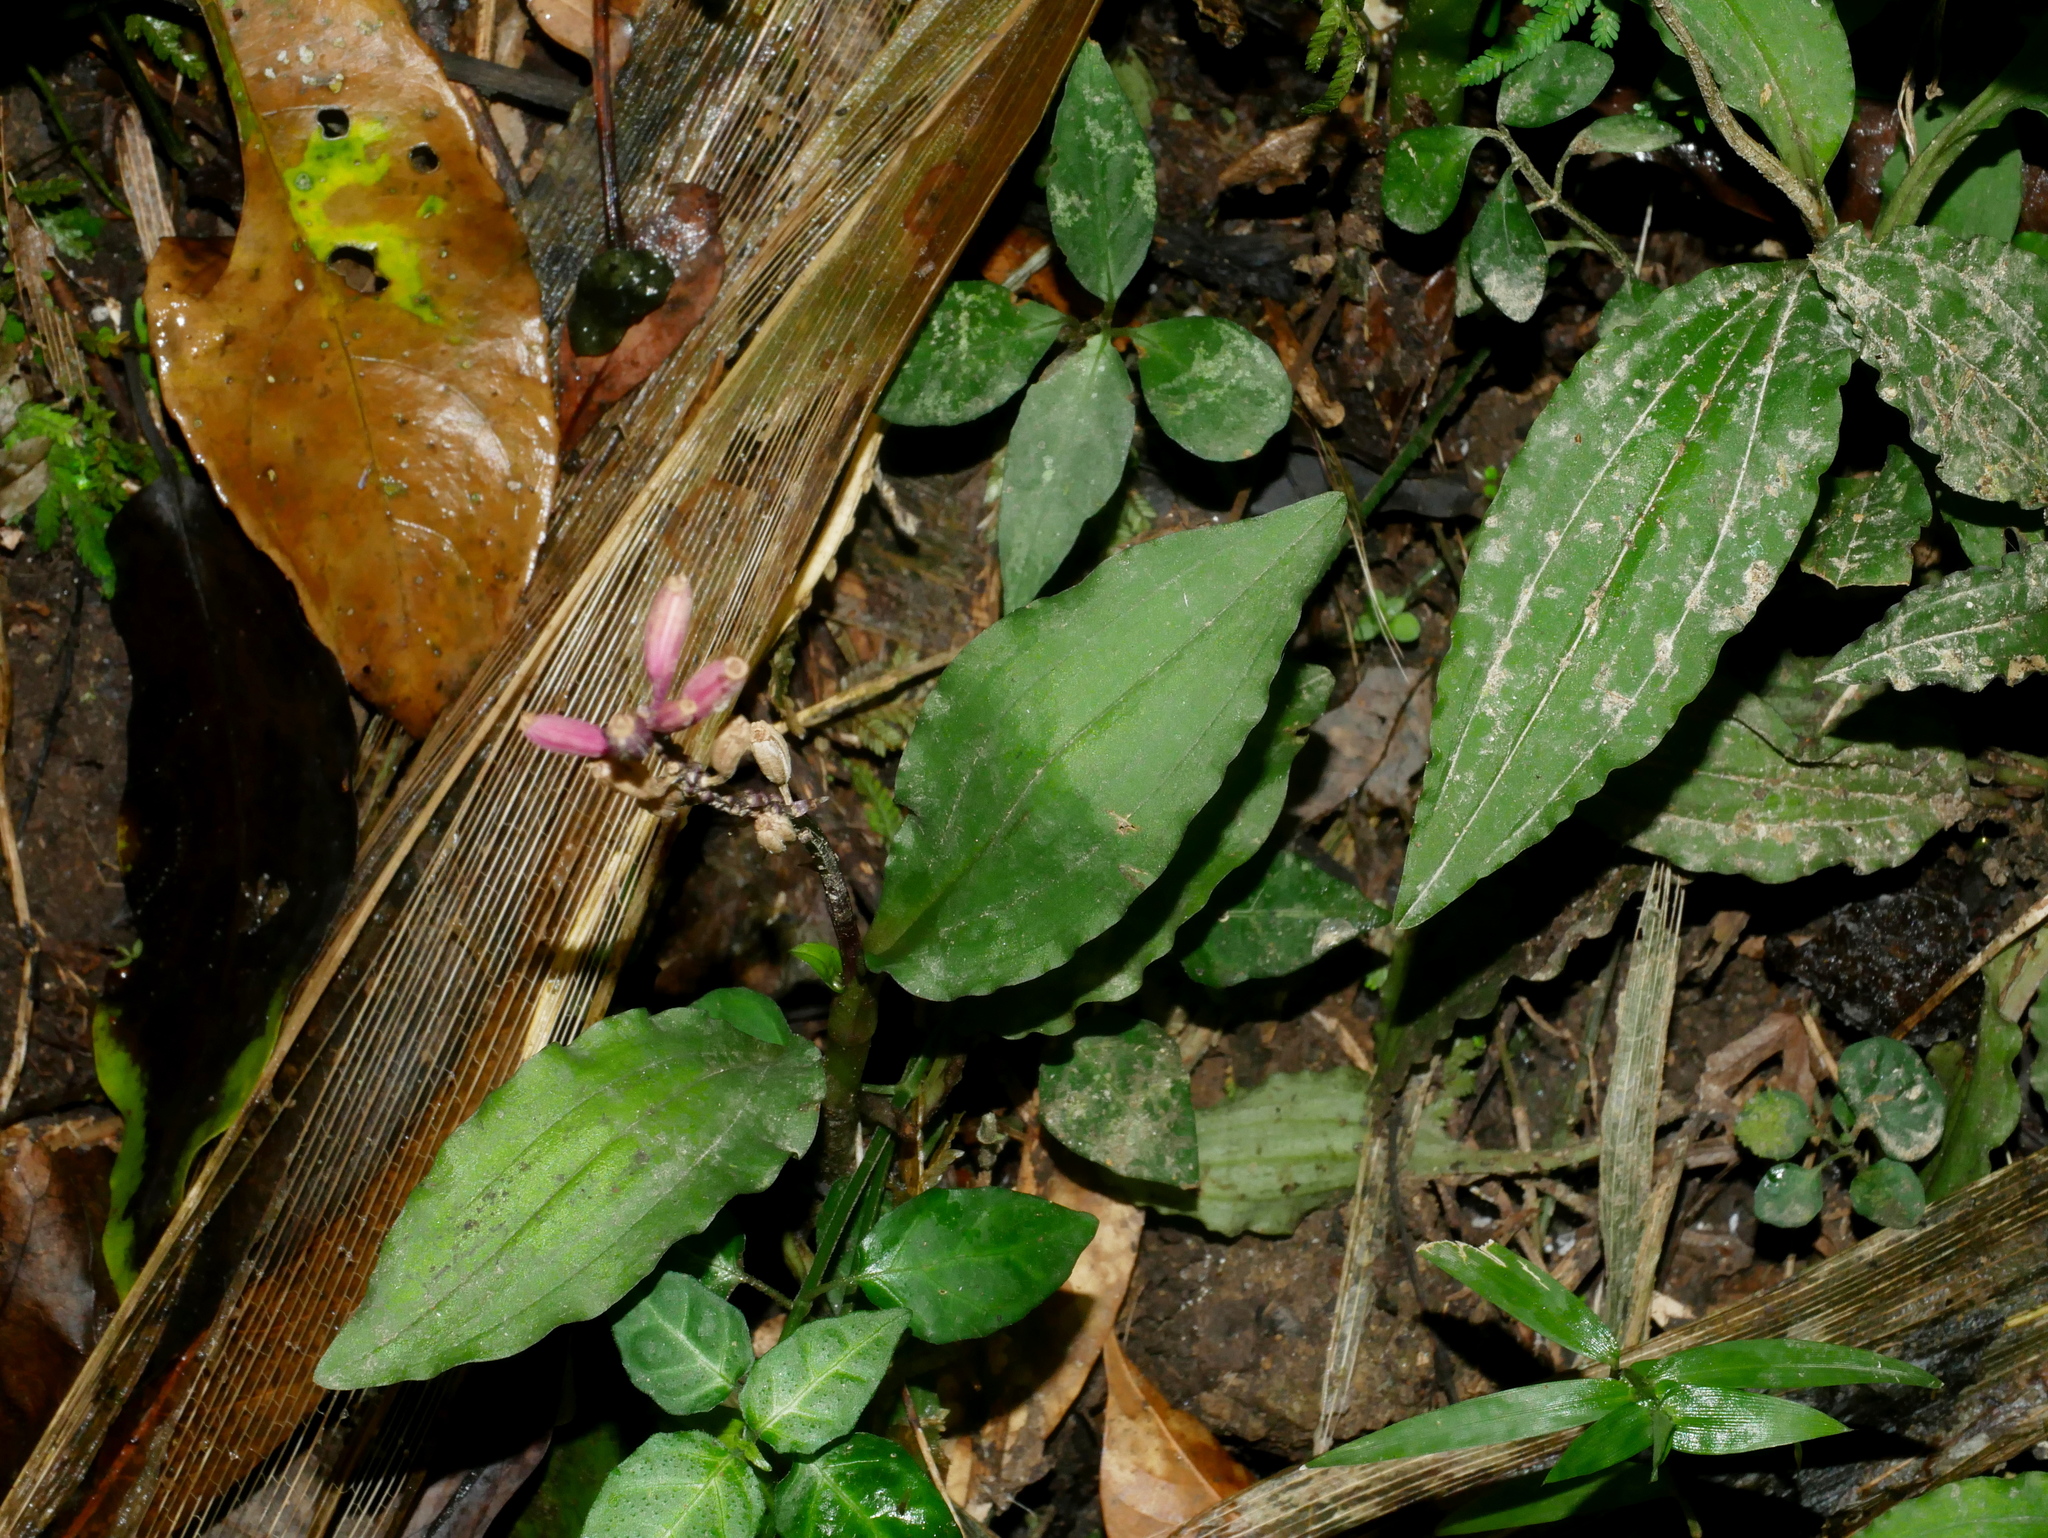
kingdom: Plantae
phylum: Tracheophyta
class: Liliopsida
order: Asparagales
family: Orchidaceae
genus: Crepidium
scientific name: Crepidium roohutuensis
